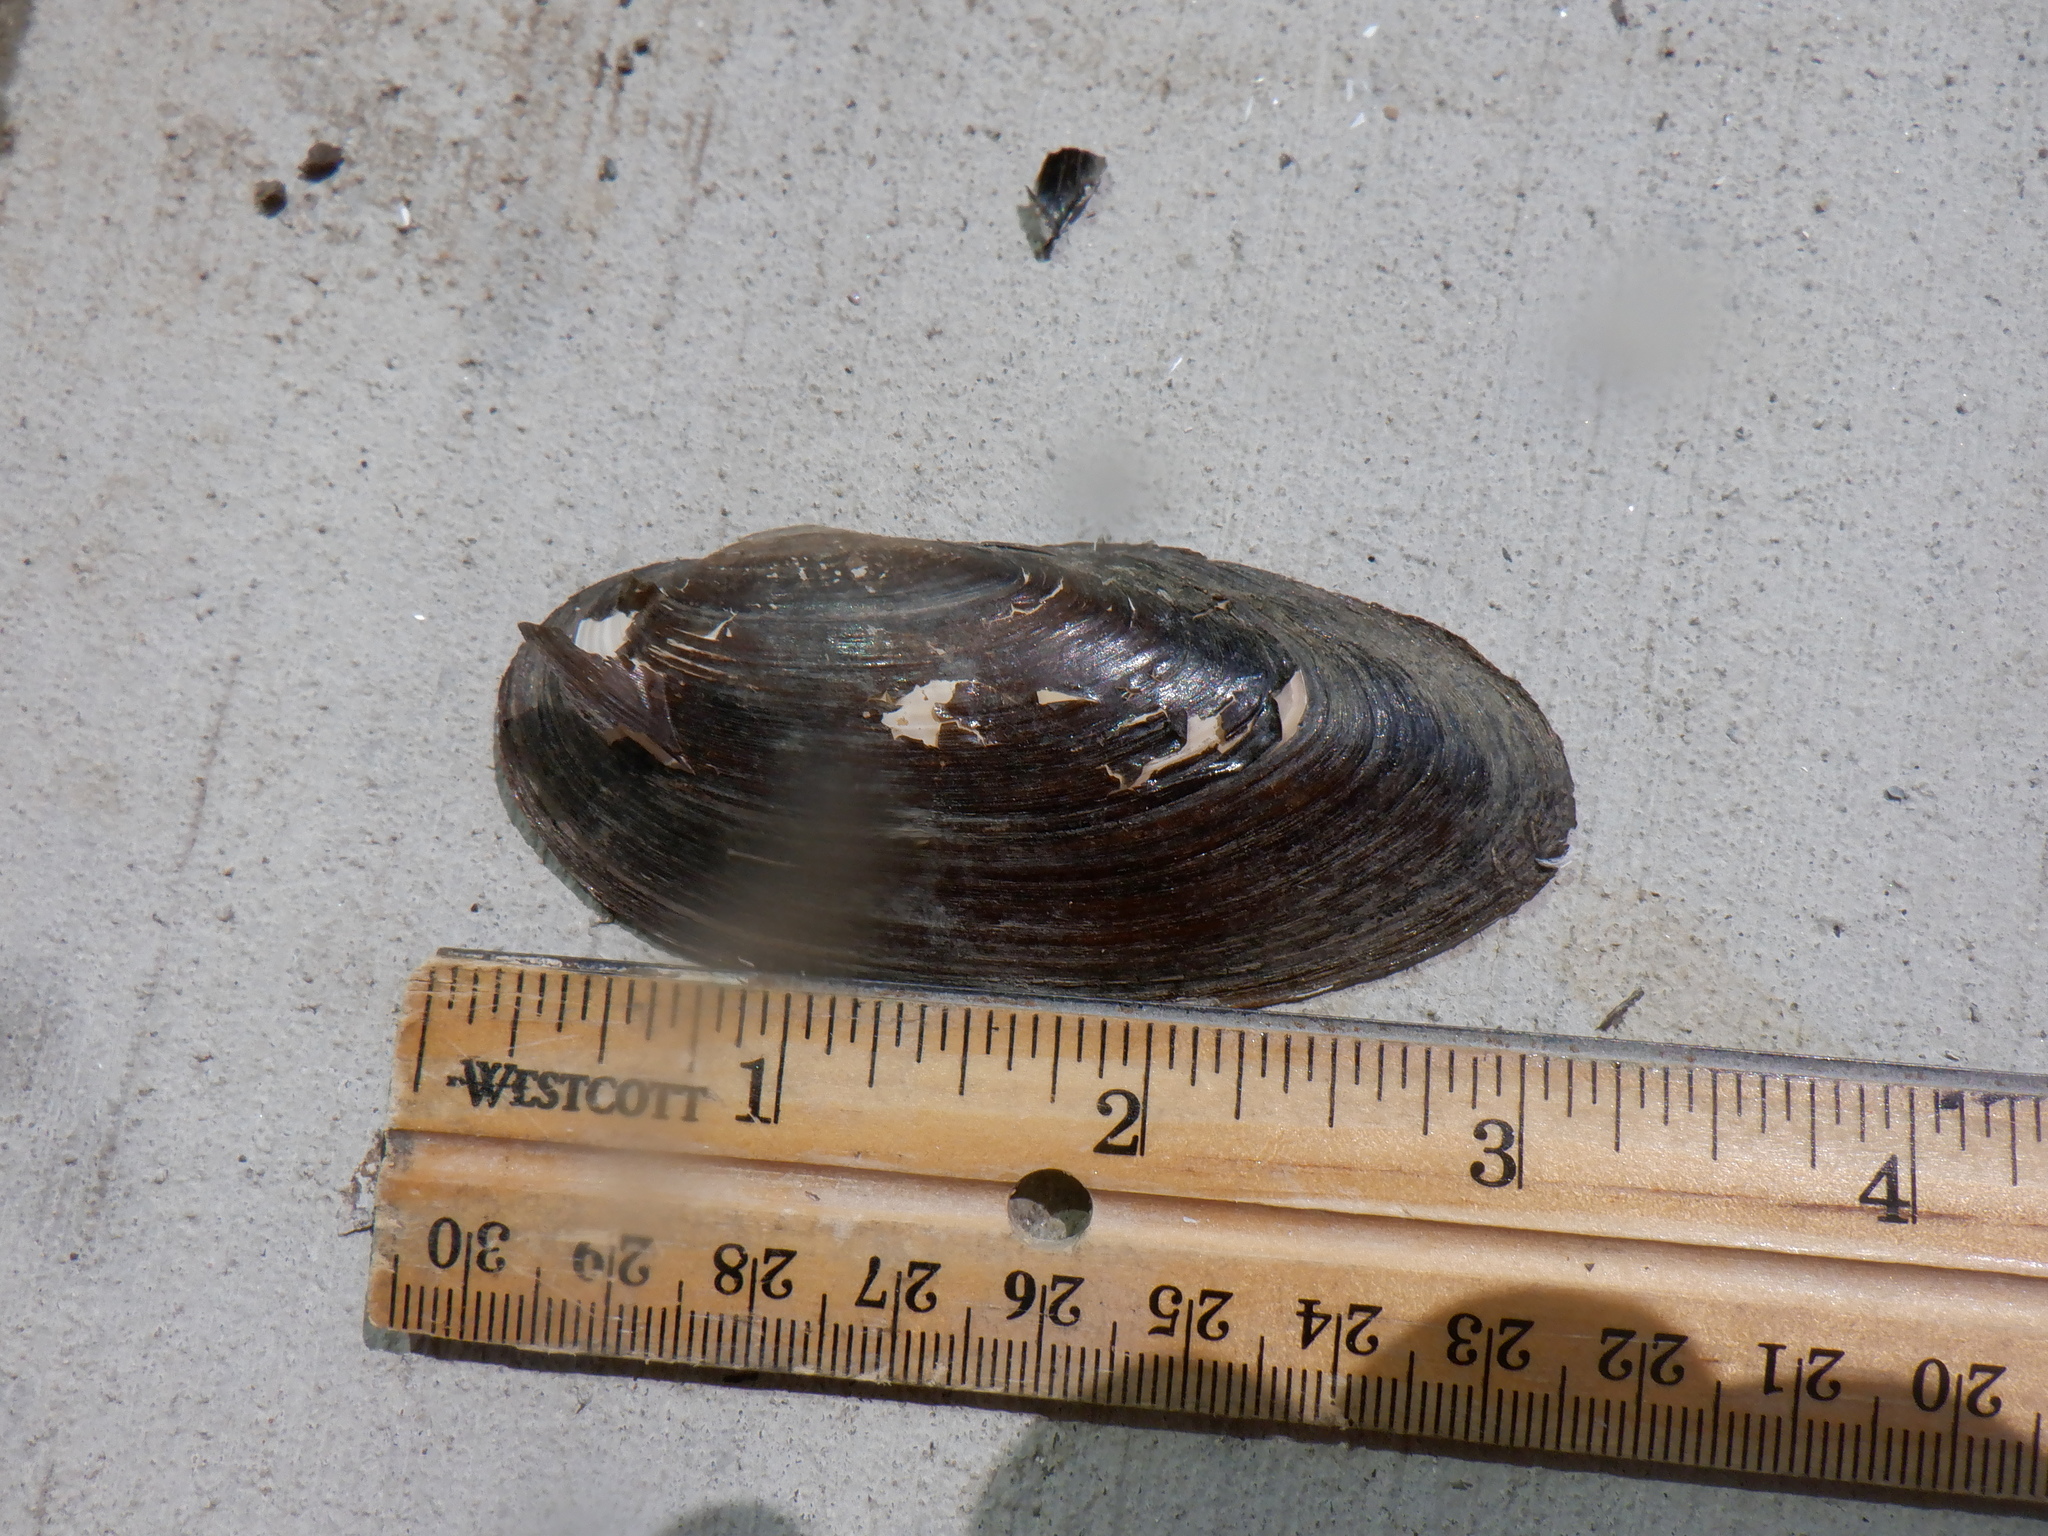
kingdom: Animalia
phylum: Mollusca
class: Bivalvia
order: Unionida
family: Unionidae
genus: Eurynia
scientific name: Eurynia dilatata
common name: Spike
